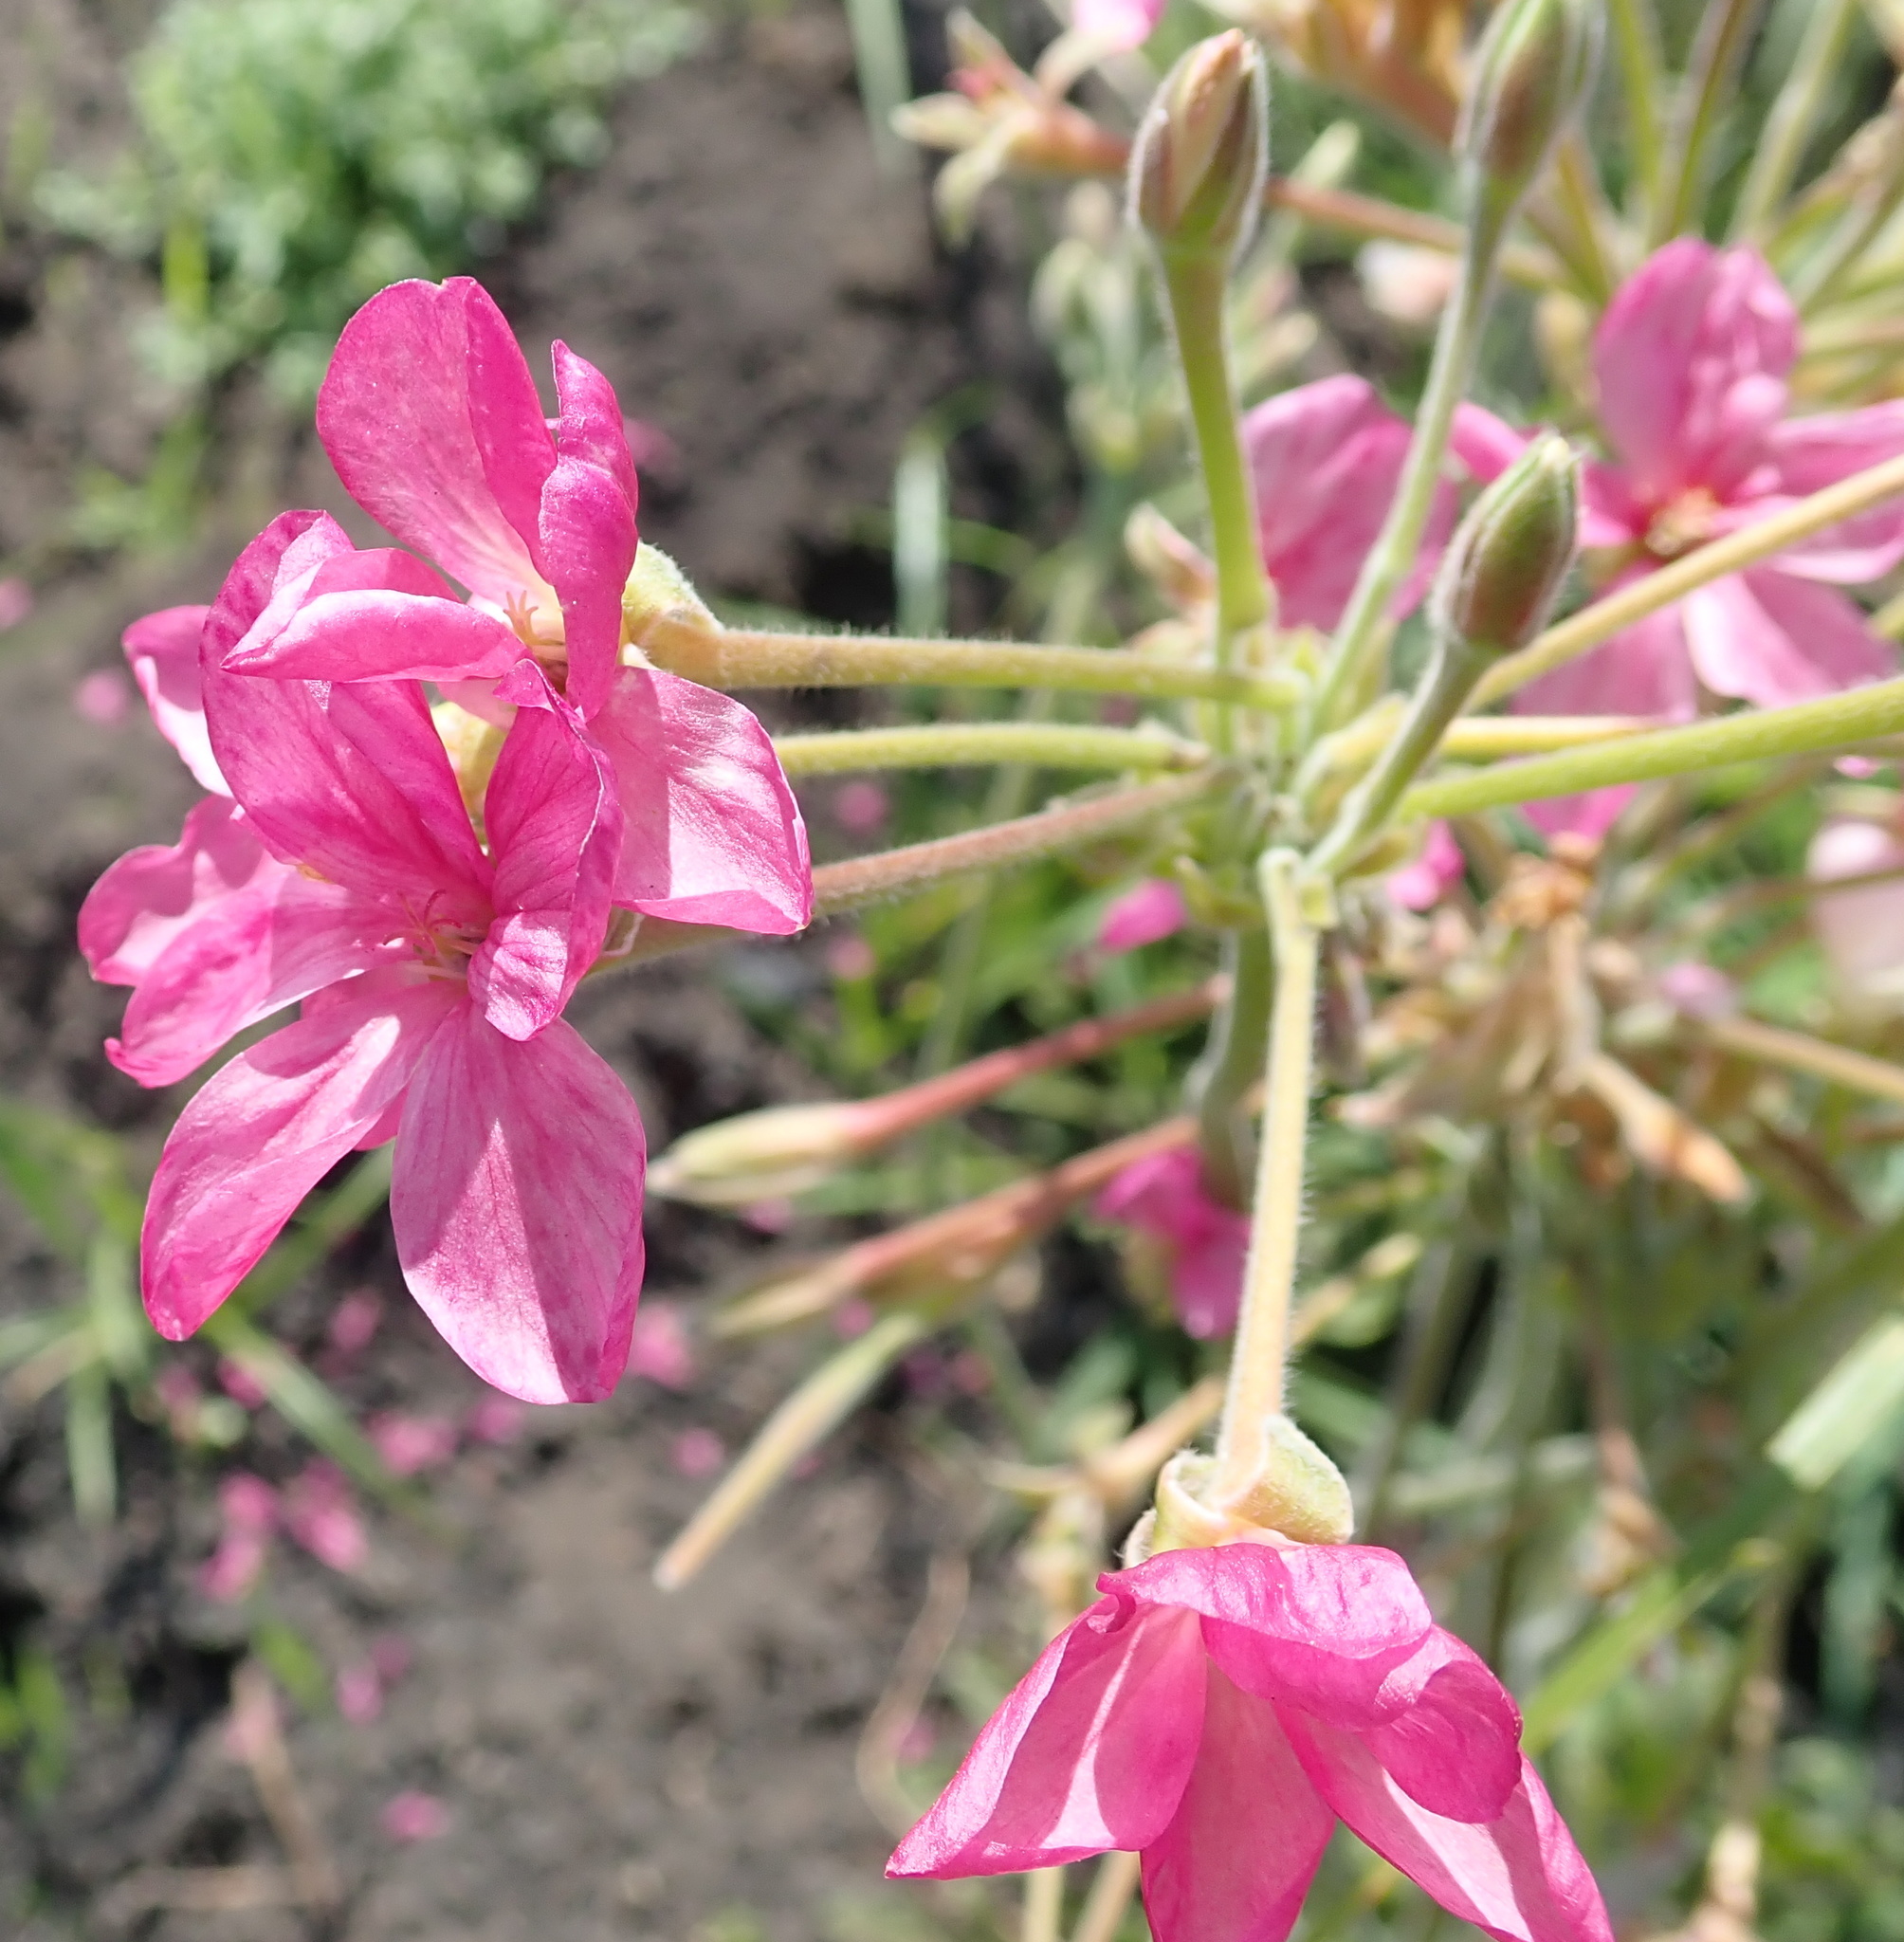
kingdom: Plantae
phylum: Tracheophyta
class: Magnoliopsida
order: Geraniales
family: Geraniaceae
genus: Pelargonium
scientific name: Pelargonium luridum
